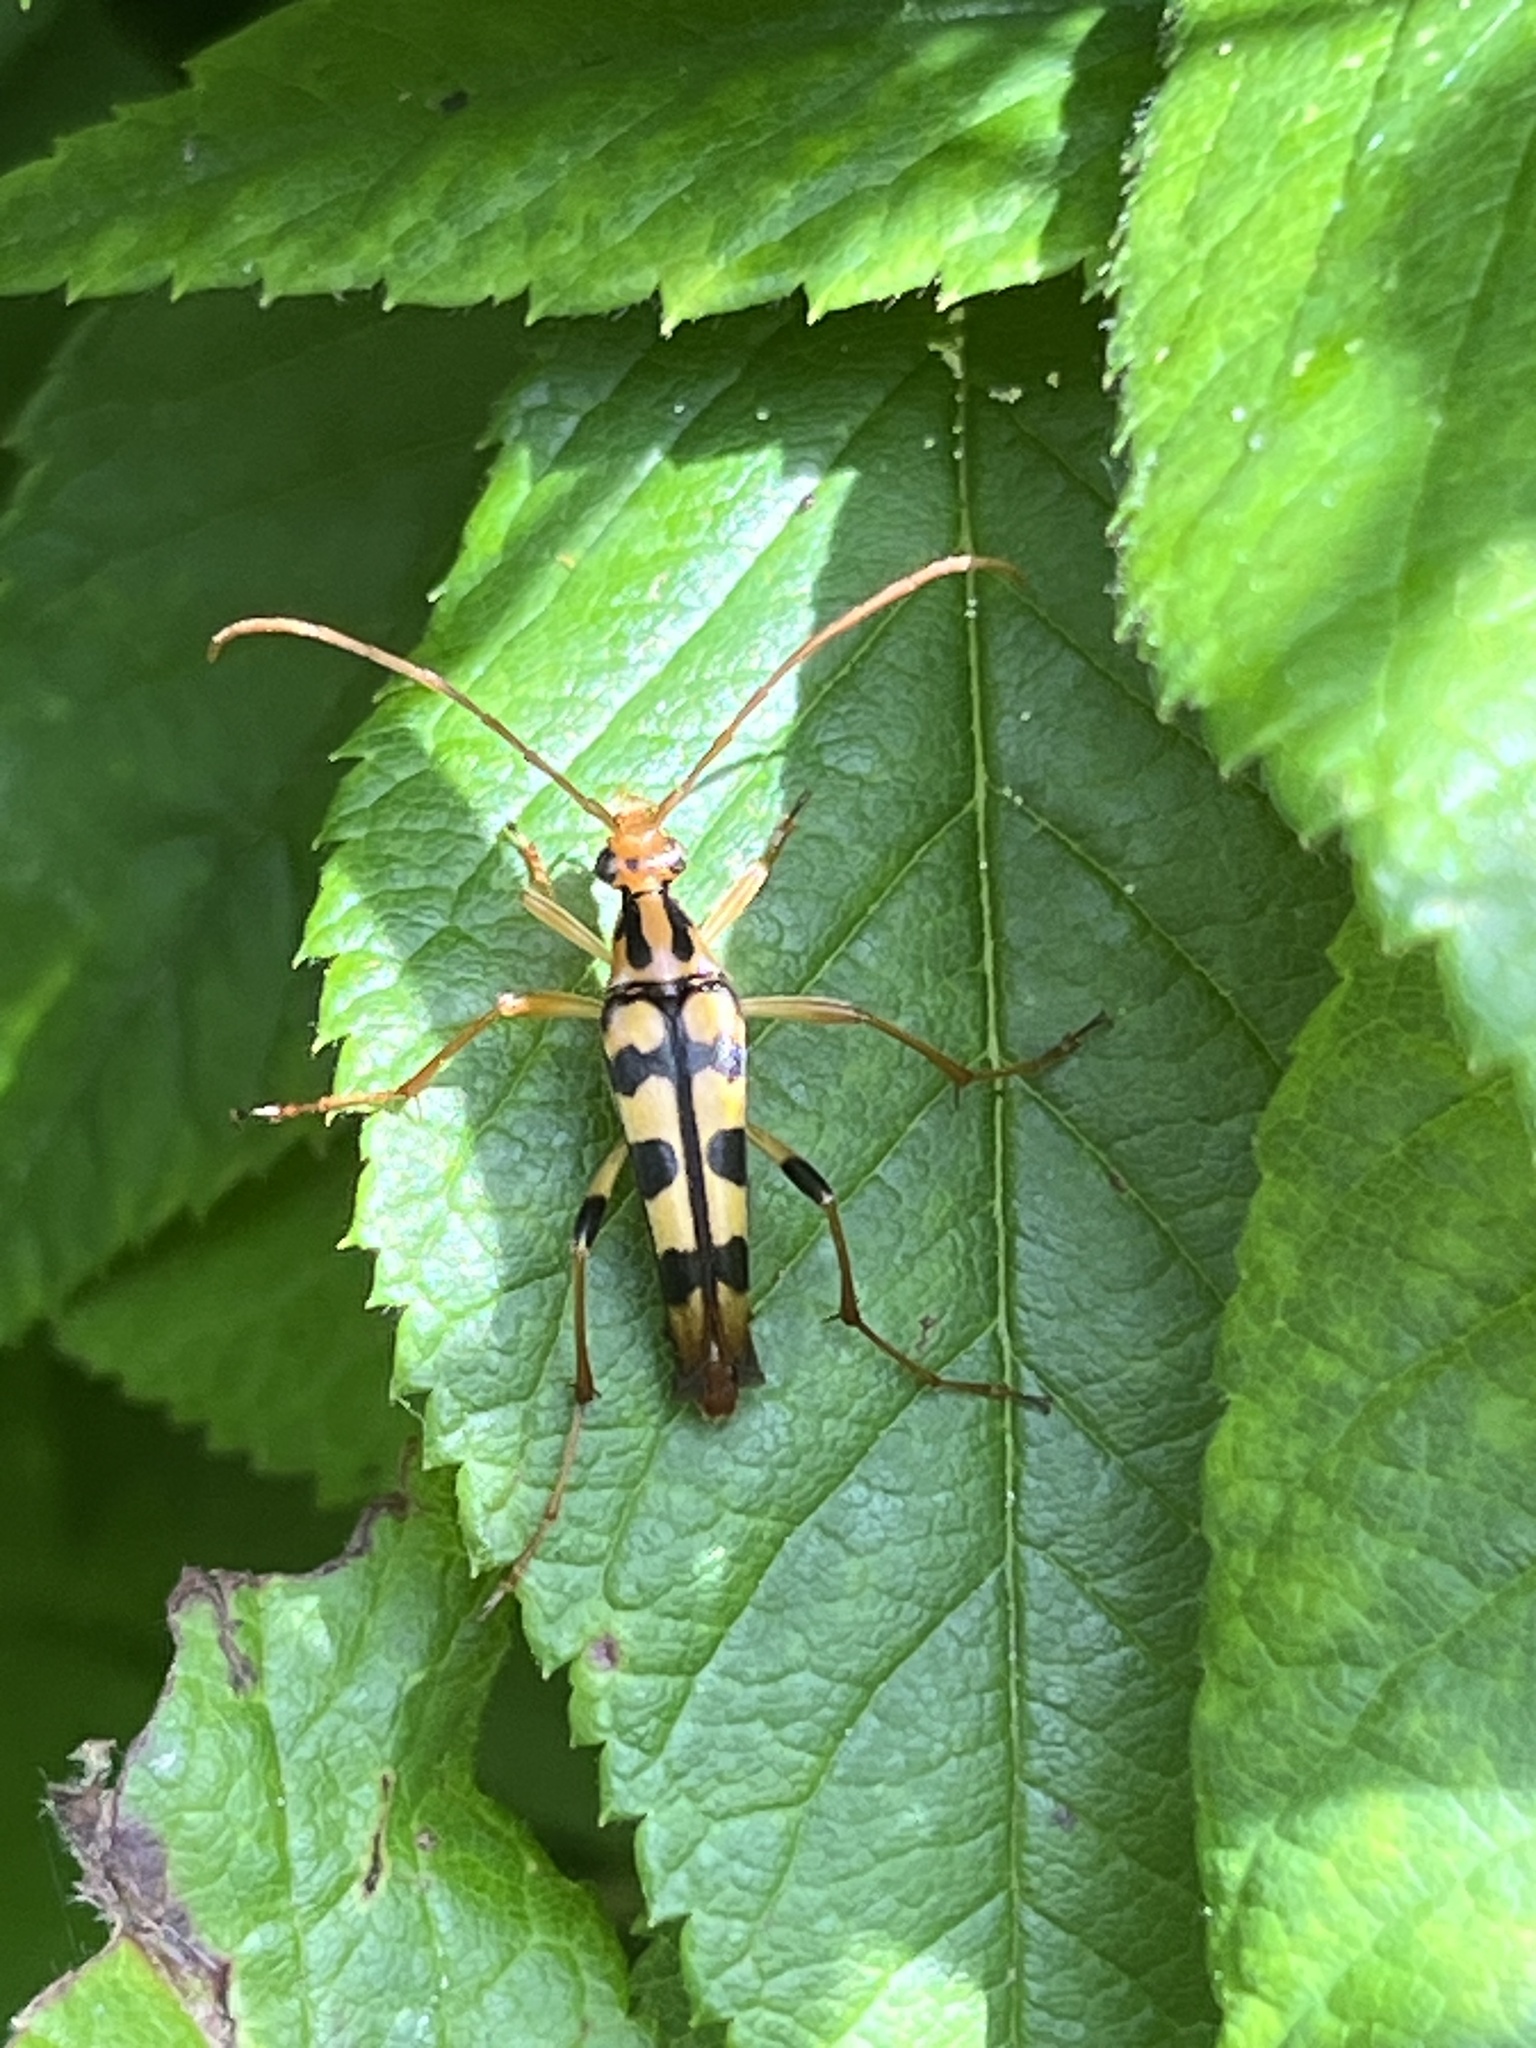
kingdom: Animalia
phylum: Arthropoda
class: Insecta
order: Coleoptera
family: Cerambycidae
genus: Strangalia
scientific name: Strangalia luteicornis
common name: Yellow-horned flower longhorn beetle
